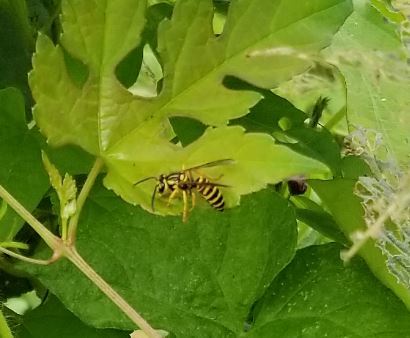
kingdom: Animalia
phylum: Arthropoda
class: Insecta
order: Hymenoptera
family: Vespidae
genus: Vespula
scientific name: Vespula squamosa
